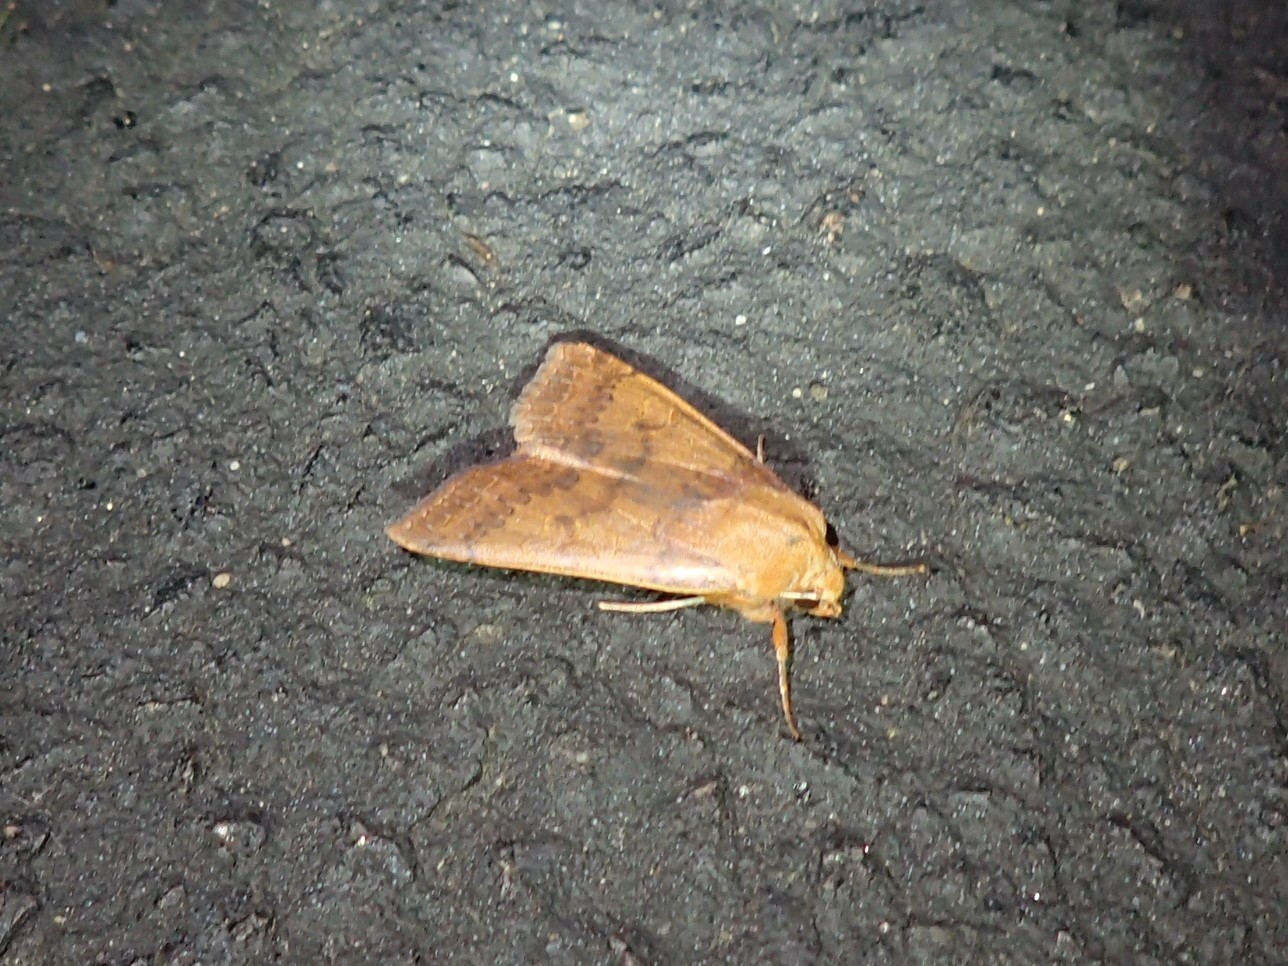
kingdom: Animalia
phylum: Arthropoda
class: Insecta
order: Lepidoptera
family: Noctuidae
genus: Agrochola
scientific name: Agrochola bicolorago
